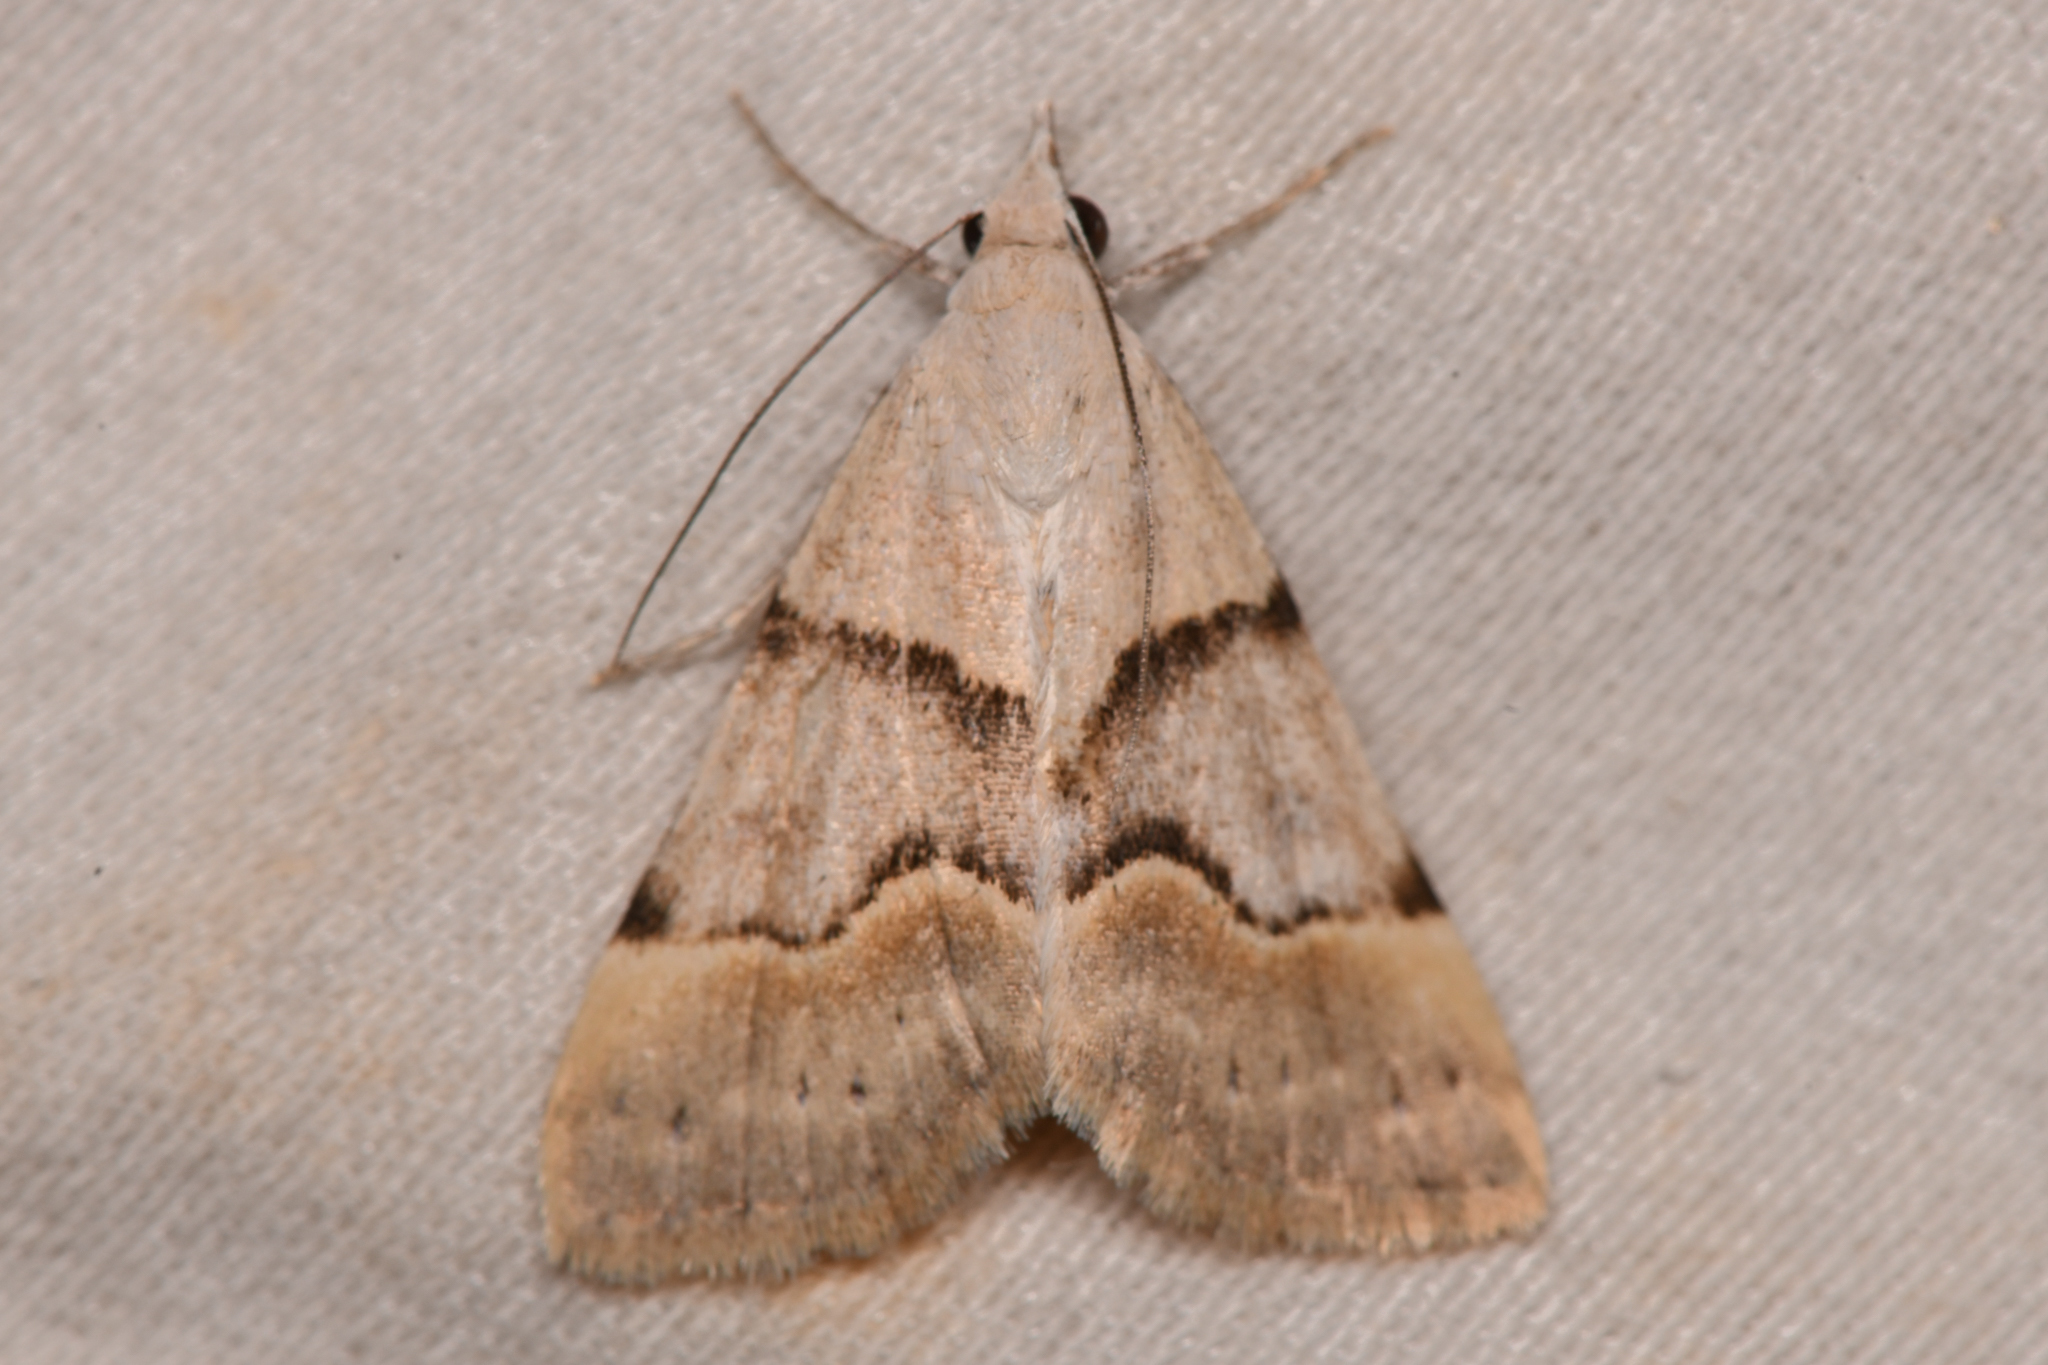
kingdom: Animalia
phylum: Arthropoda
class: Insecta
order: Lepidoptera
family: Erebidae
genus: Hemeroplanis
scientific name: Hemeroplanis incusalis
